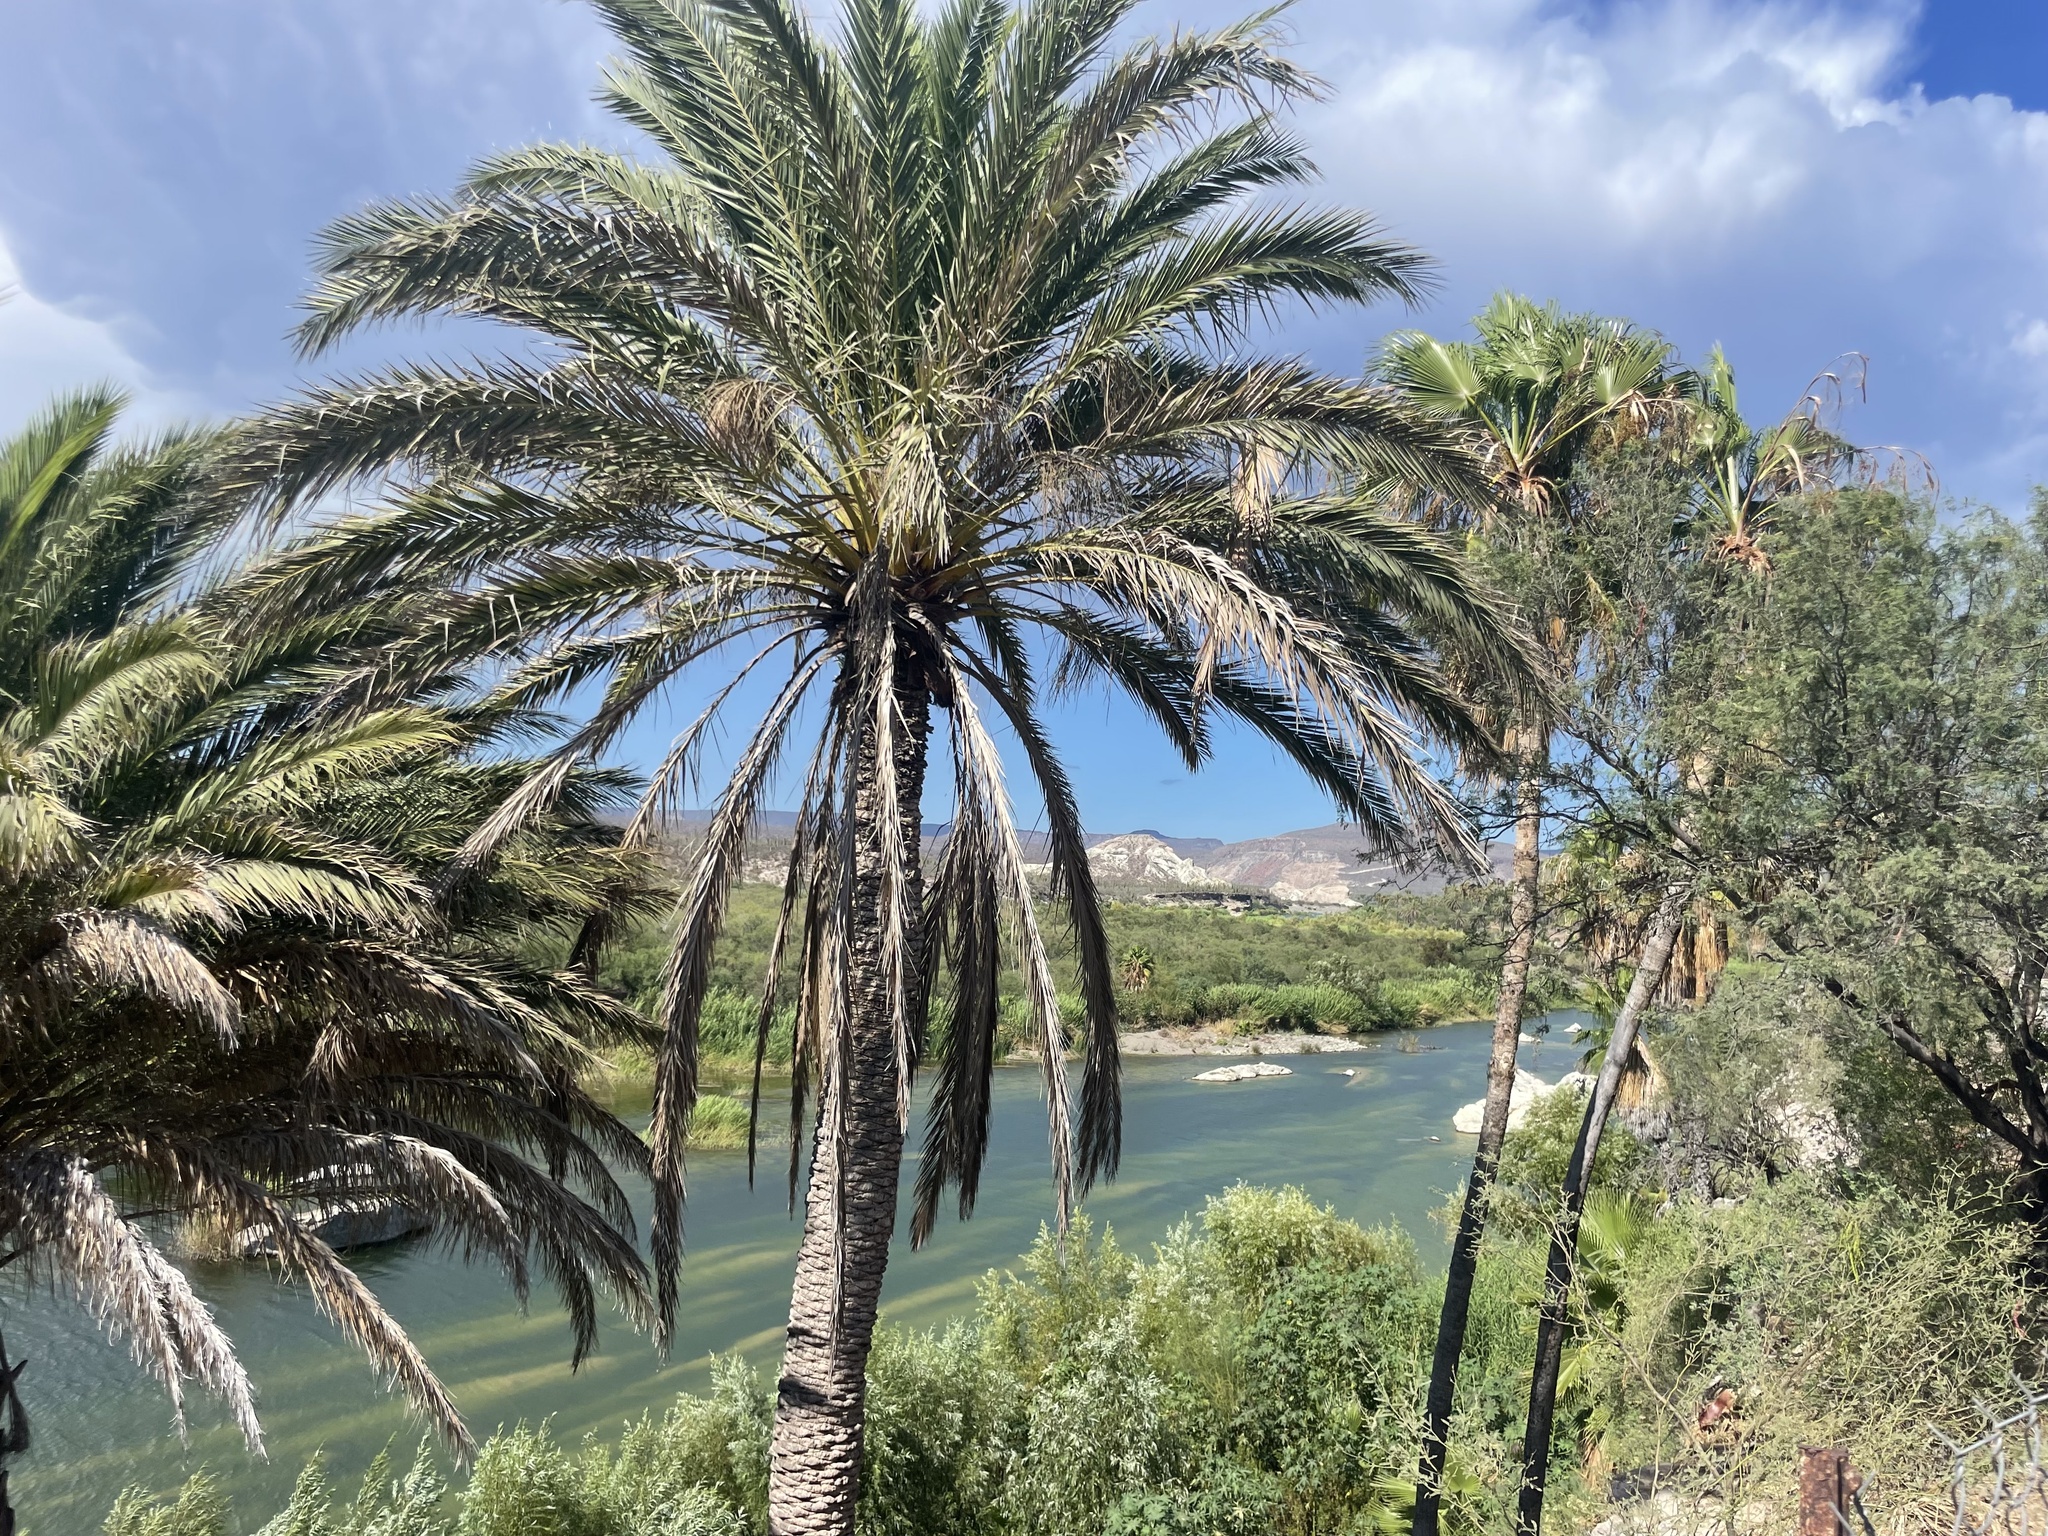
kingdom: Plantae
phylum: Tracheophyta
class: Liliopsida
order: Arecales
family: Arecaceae
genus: Phoenix
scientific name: Phoenix dactylifera
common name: Date palm
